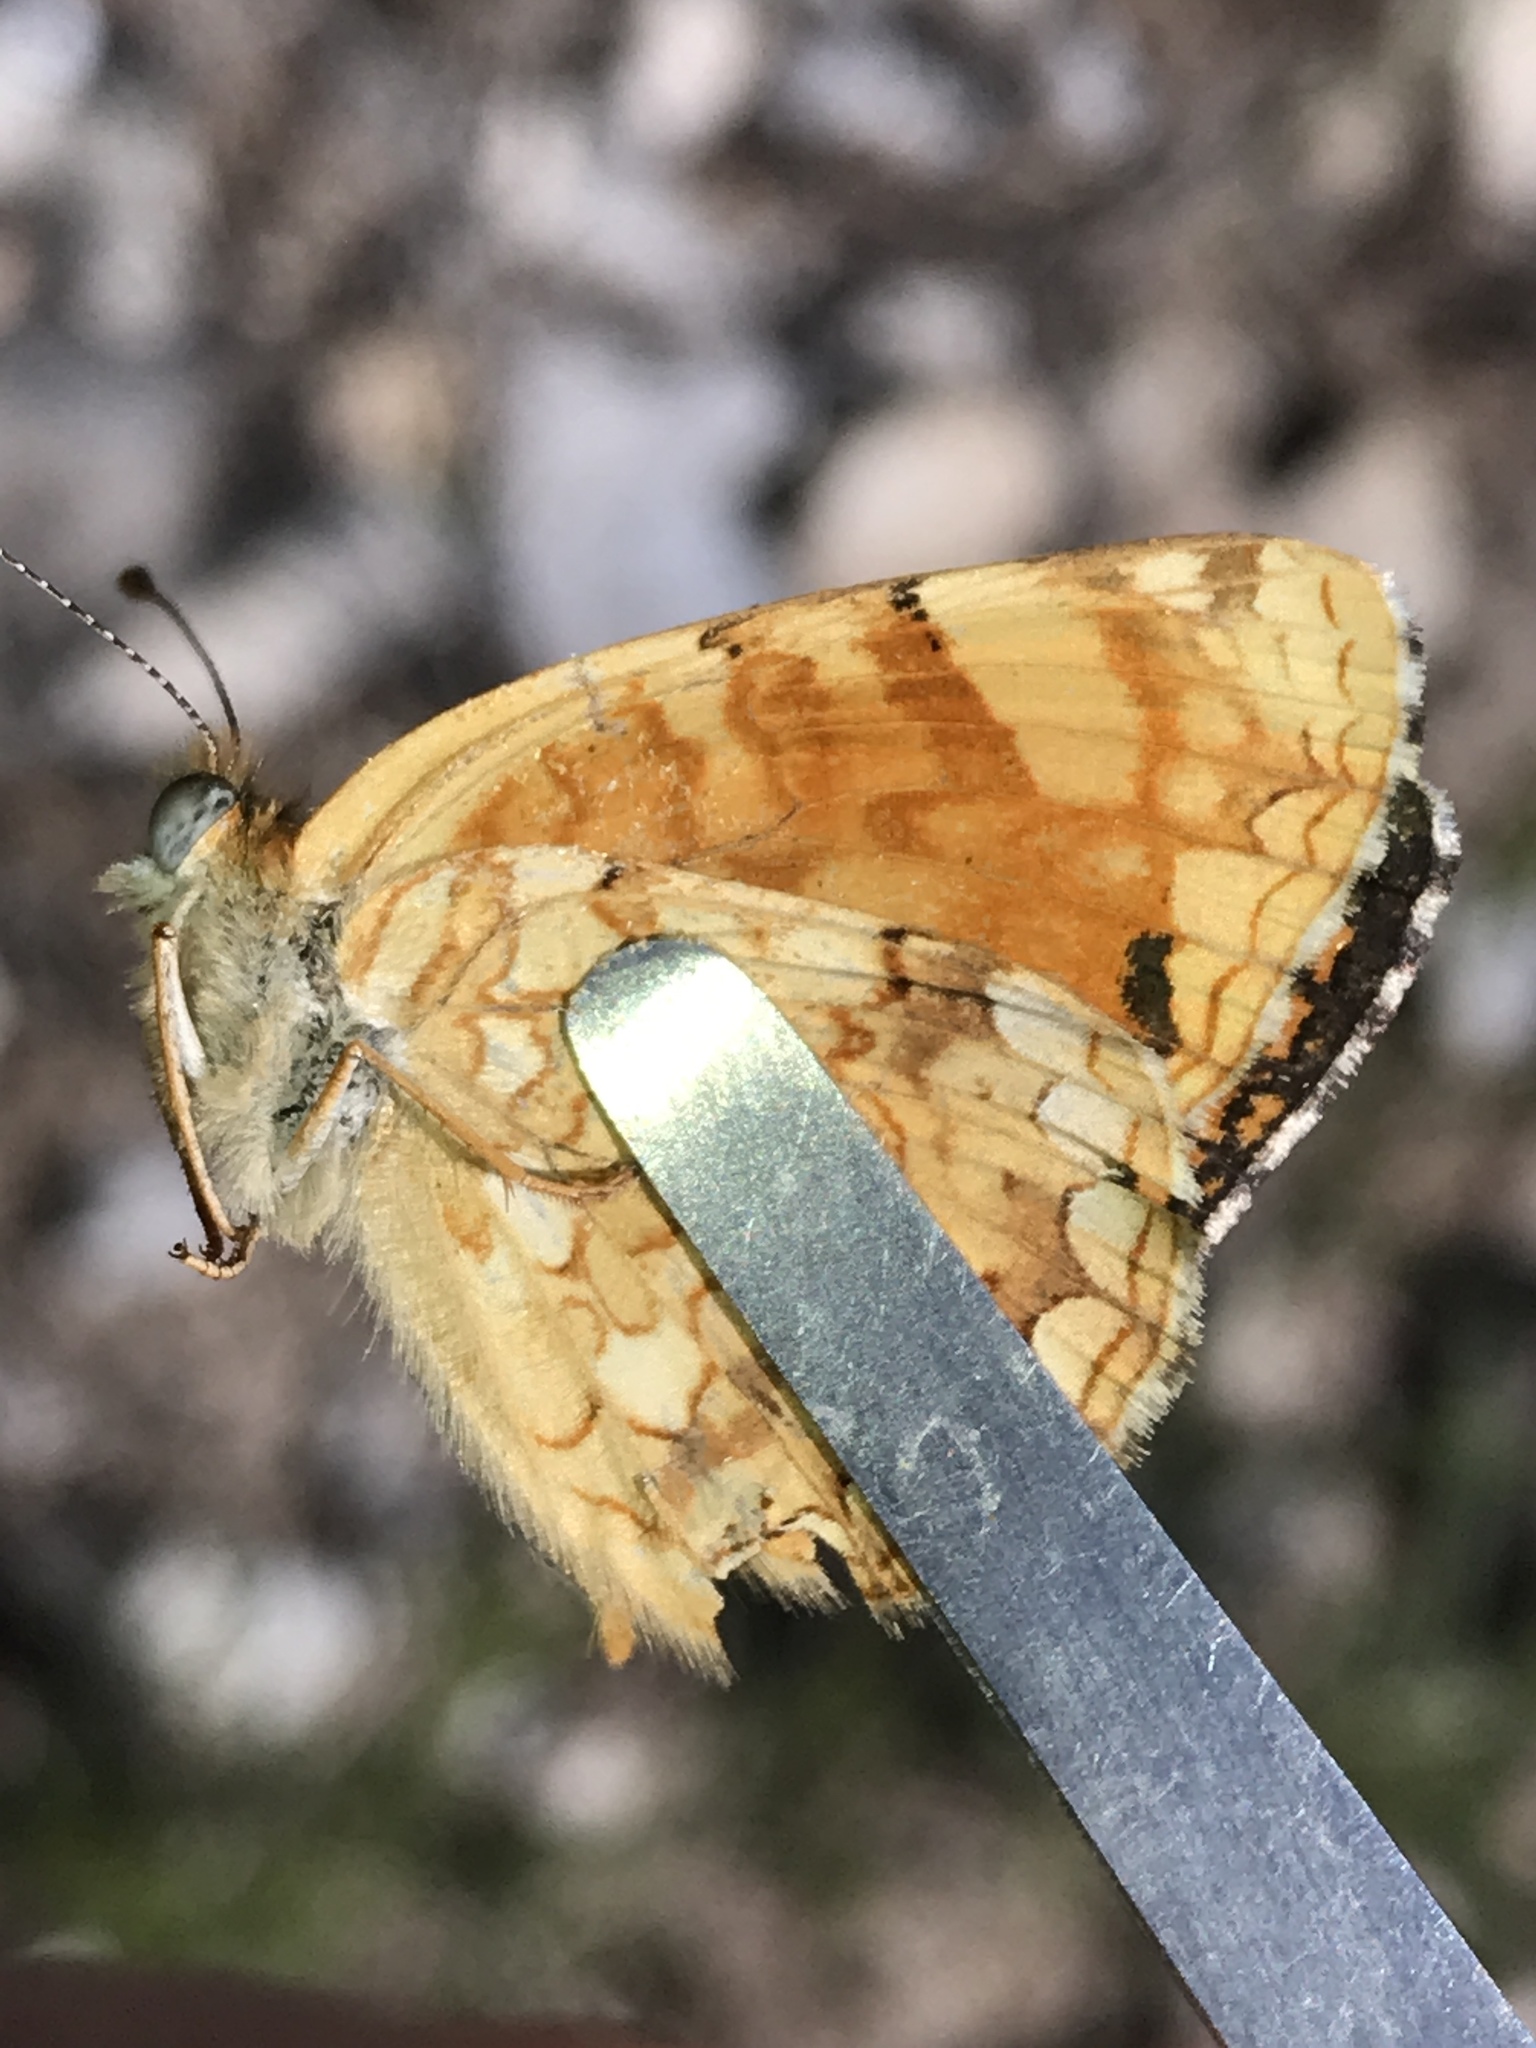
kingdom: Animalia
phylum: Arthropoda
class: Insecta
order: Lepidoptera
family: Nymphalidae
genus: Phyciodes
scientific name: Phyciodes pallida
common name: Pale crescent
